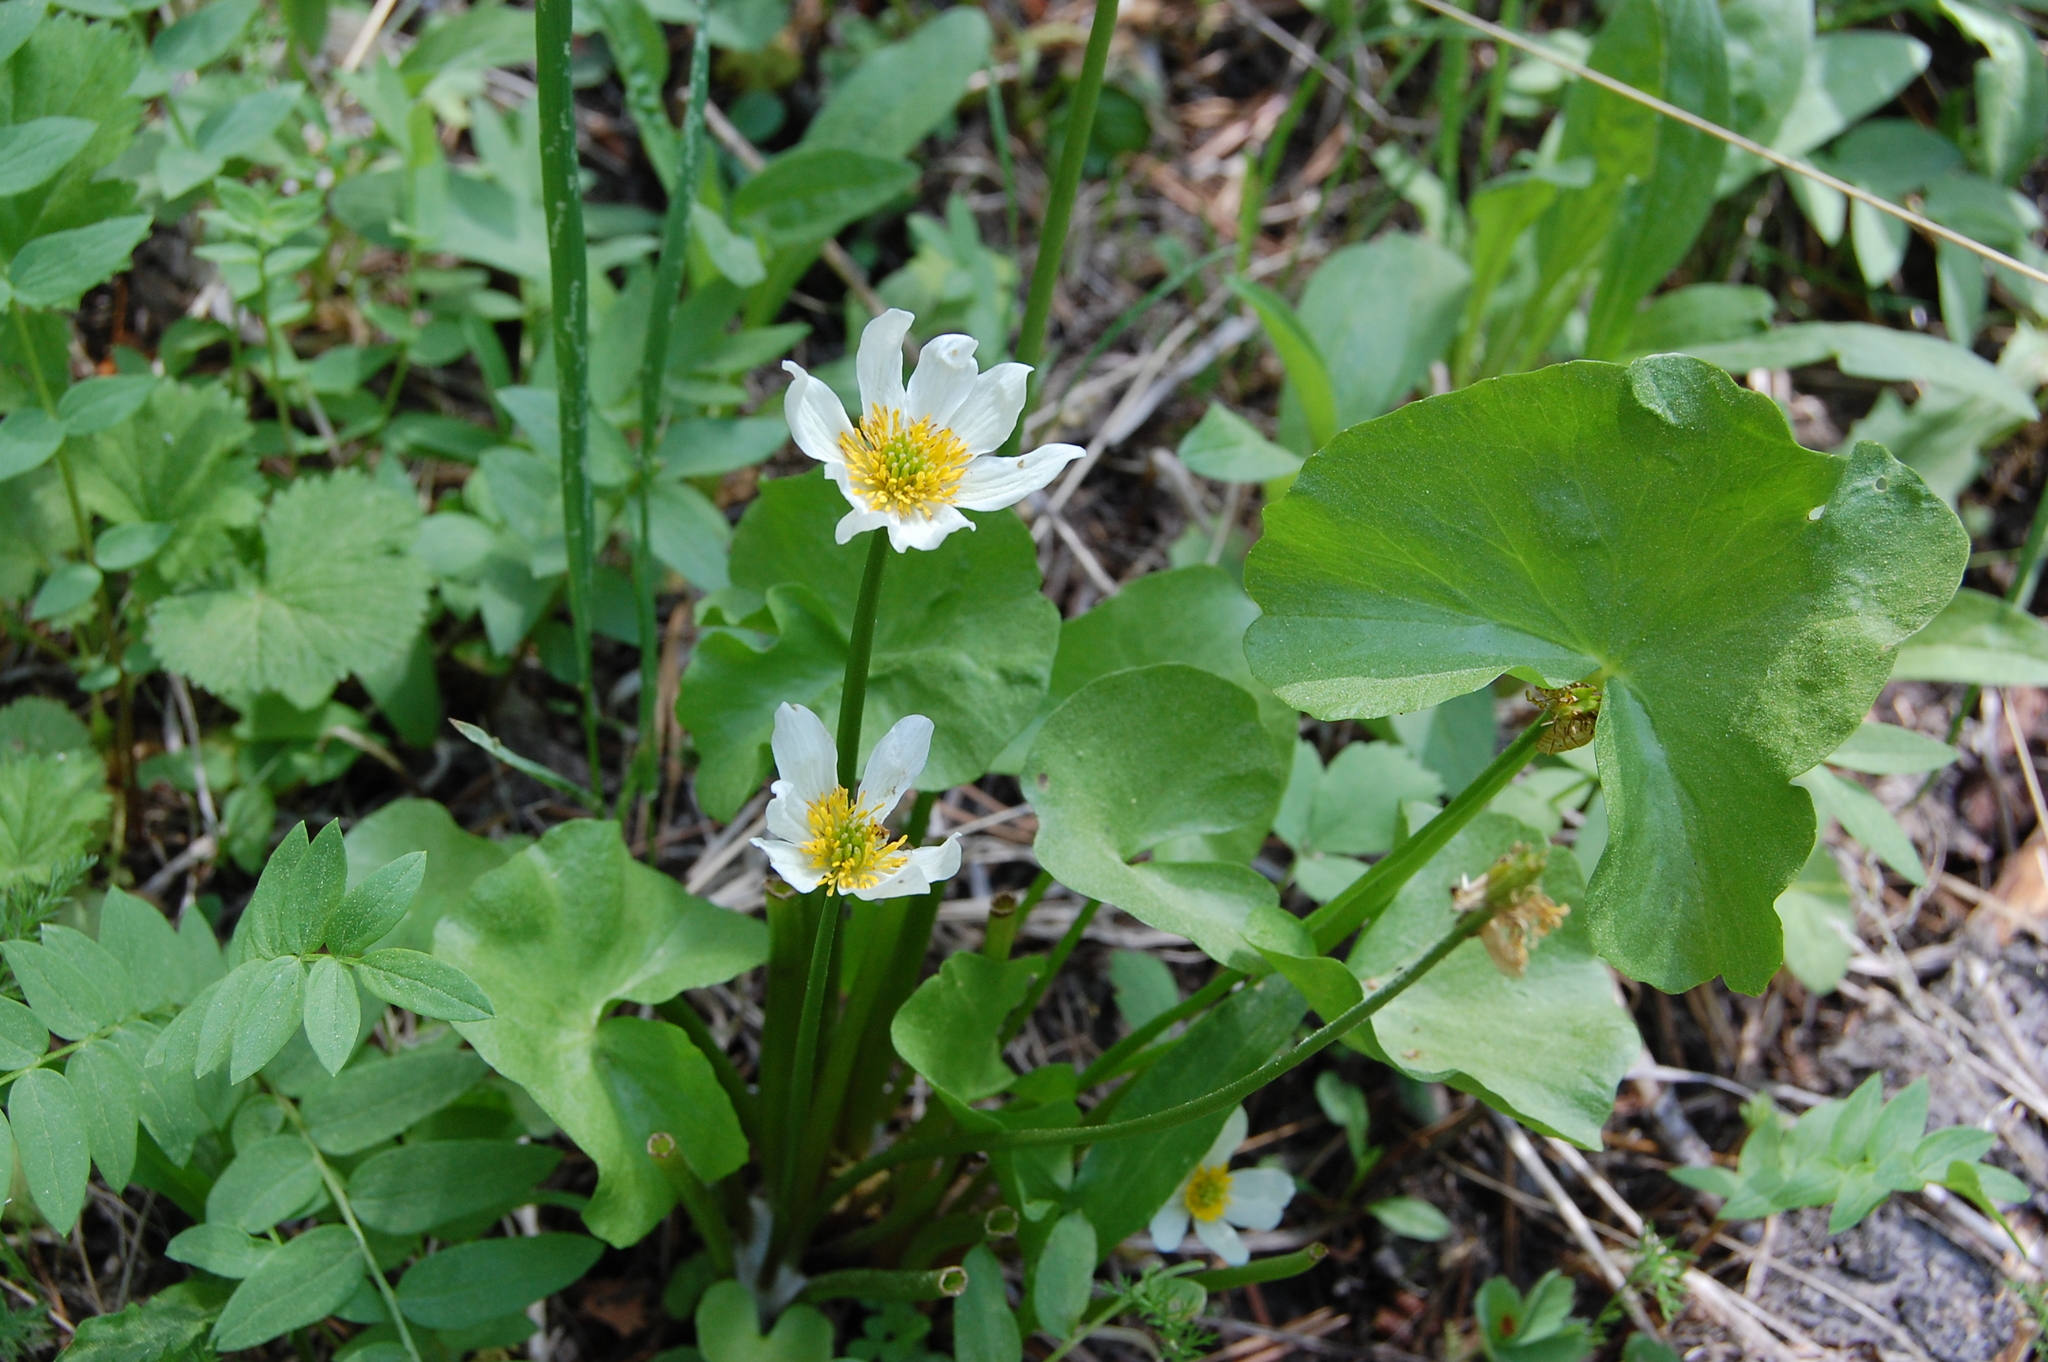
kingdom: Plantae
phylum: Tracheophyta
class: Magnoliopsida
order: Ranunculales
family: Ranunculaceae
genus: Caltha
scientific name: Caltha leptosepala
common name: Elkslip
